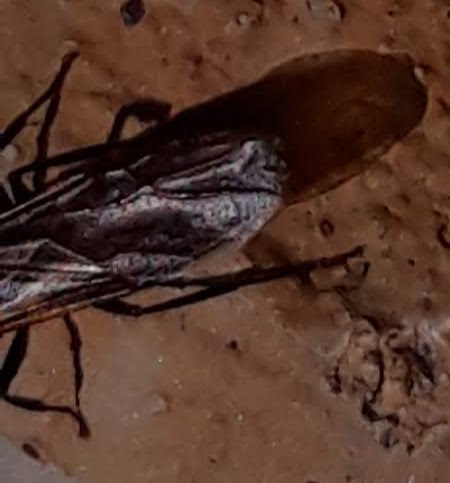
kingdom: Animalia
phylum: Arthropoda
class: Insecta
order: Hymenoptera
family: Formicidae
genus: Camponotus
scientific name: Camponotus pennsylvanicus
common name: Black carpenter ant
